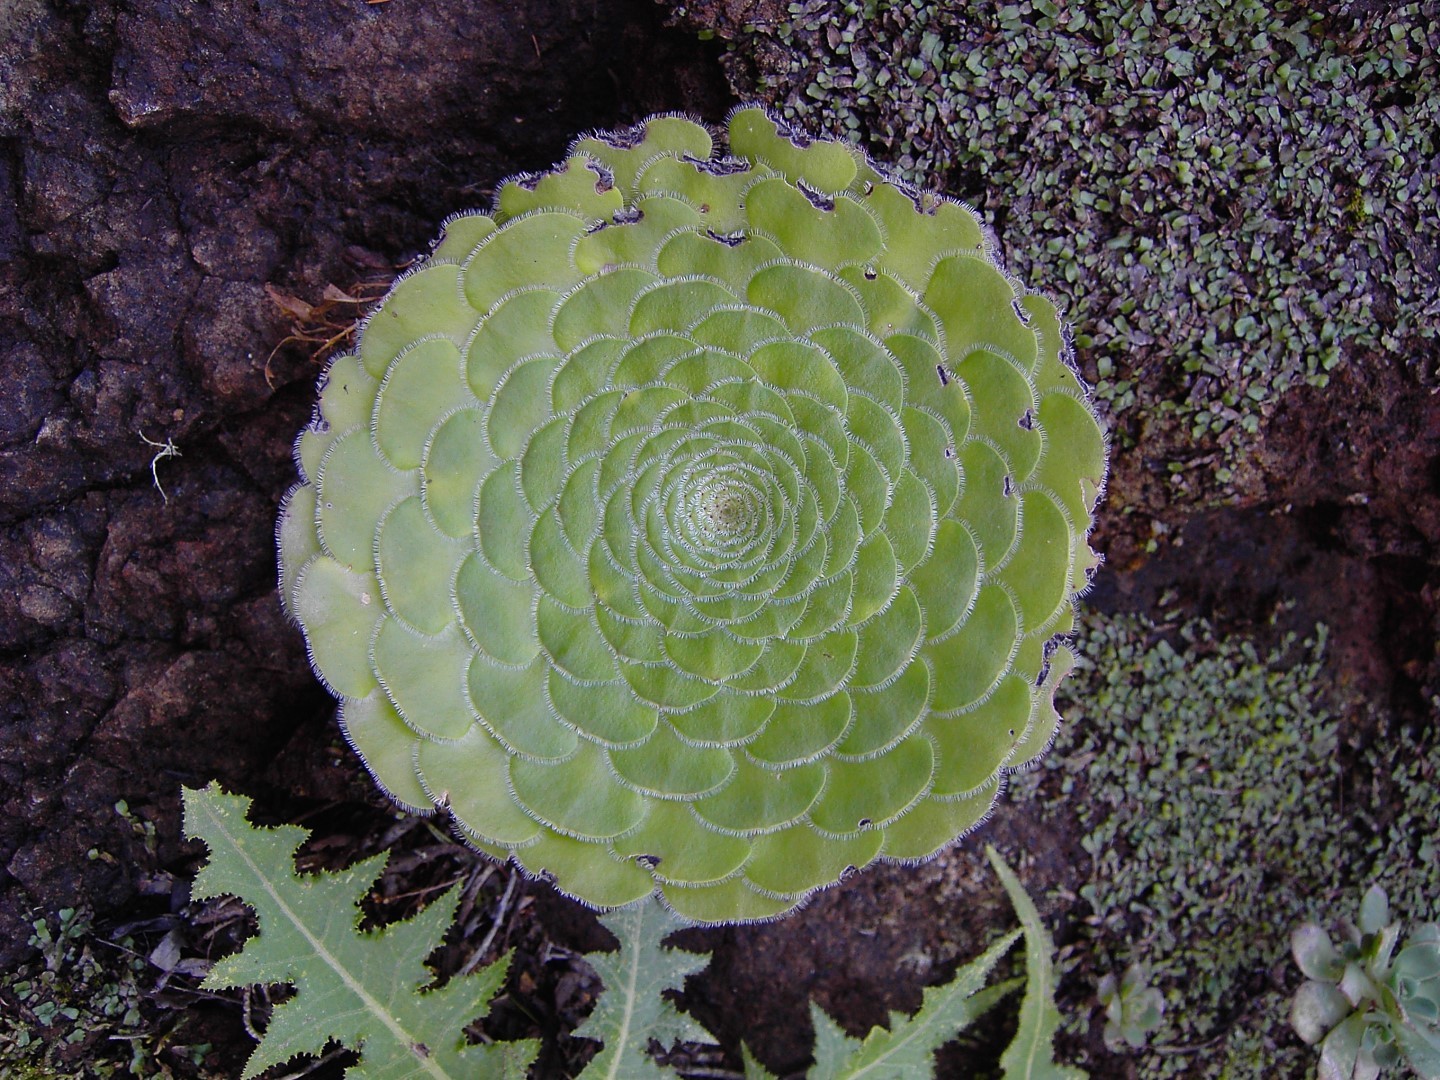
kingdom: Plantae
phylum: Tracheophyta
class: Magnoliopsida
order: Saxifragales
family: Crassulaceae
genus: Aeonium
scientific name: Aeonium tabulaeforme
